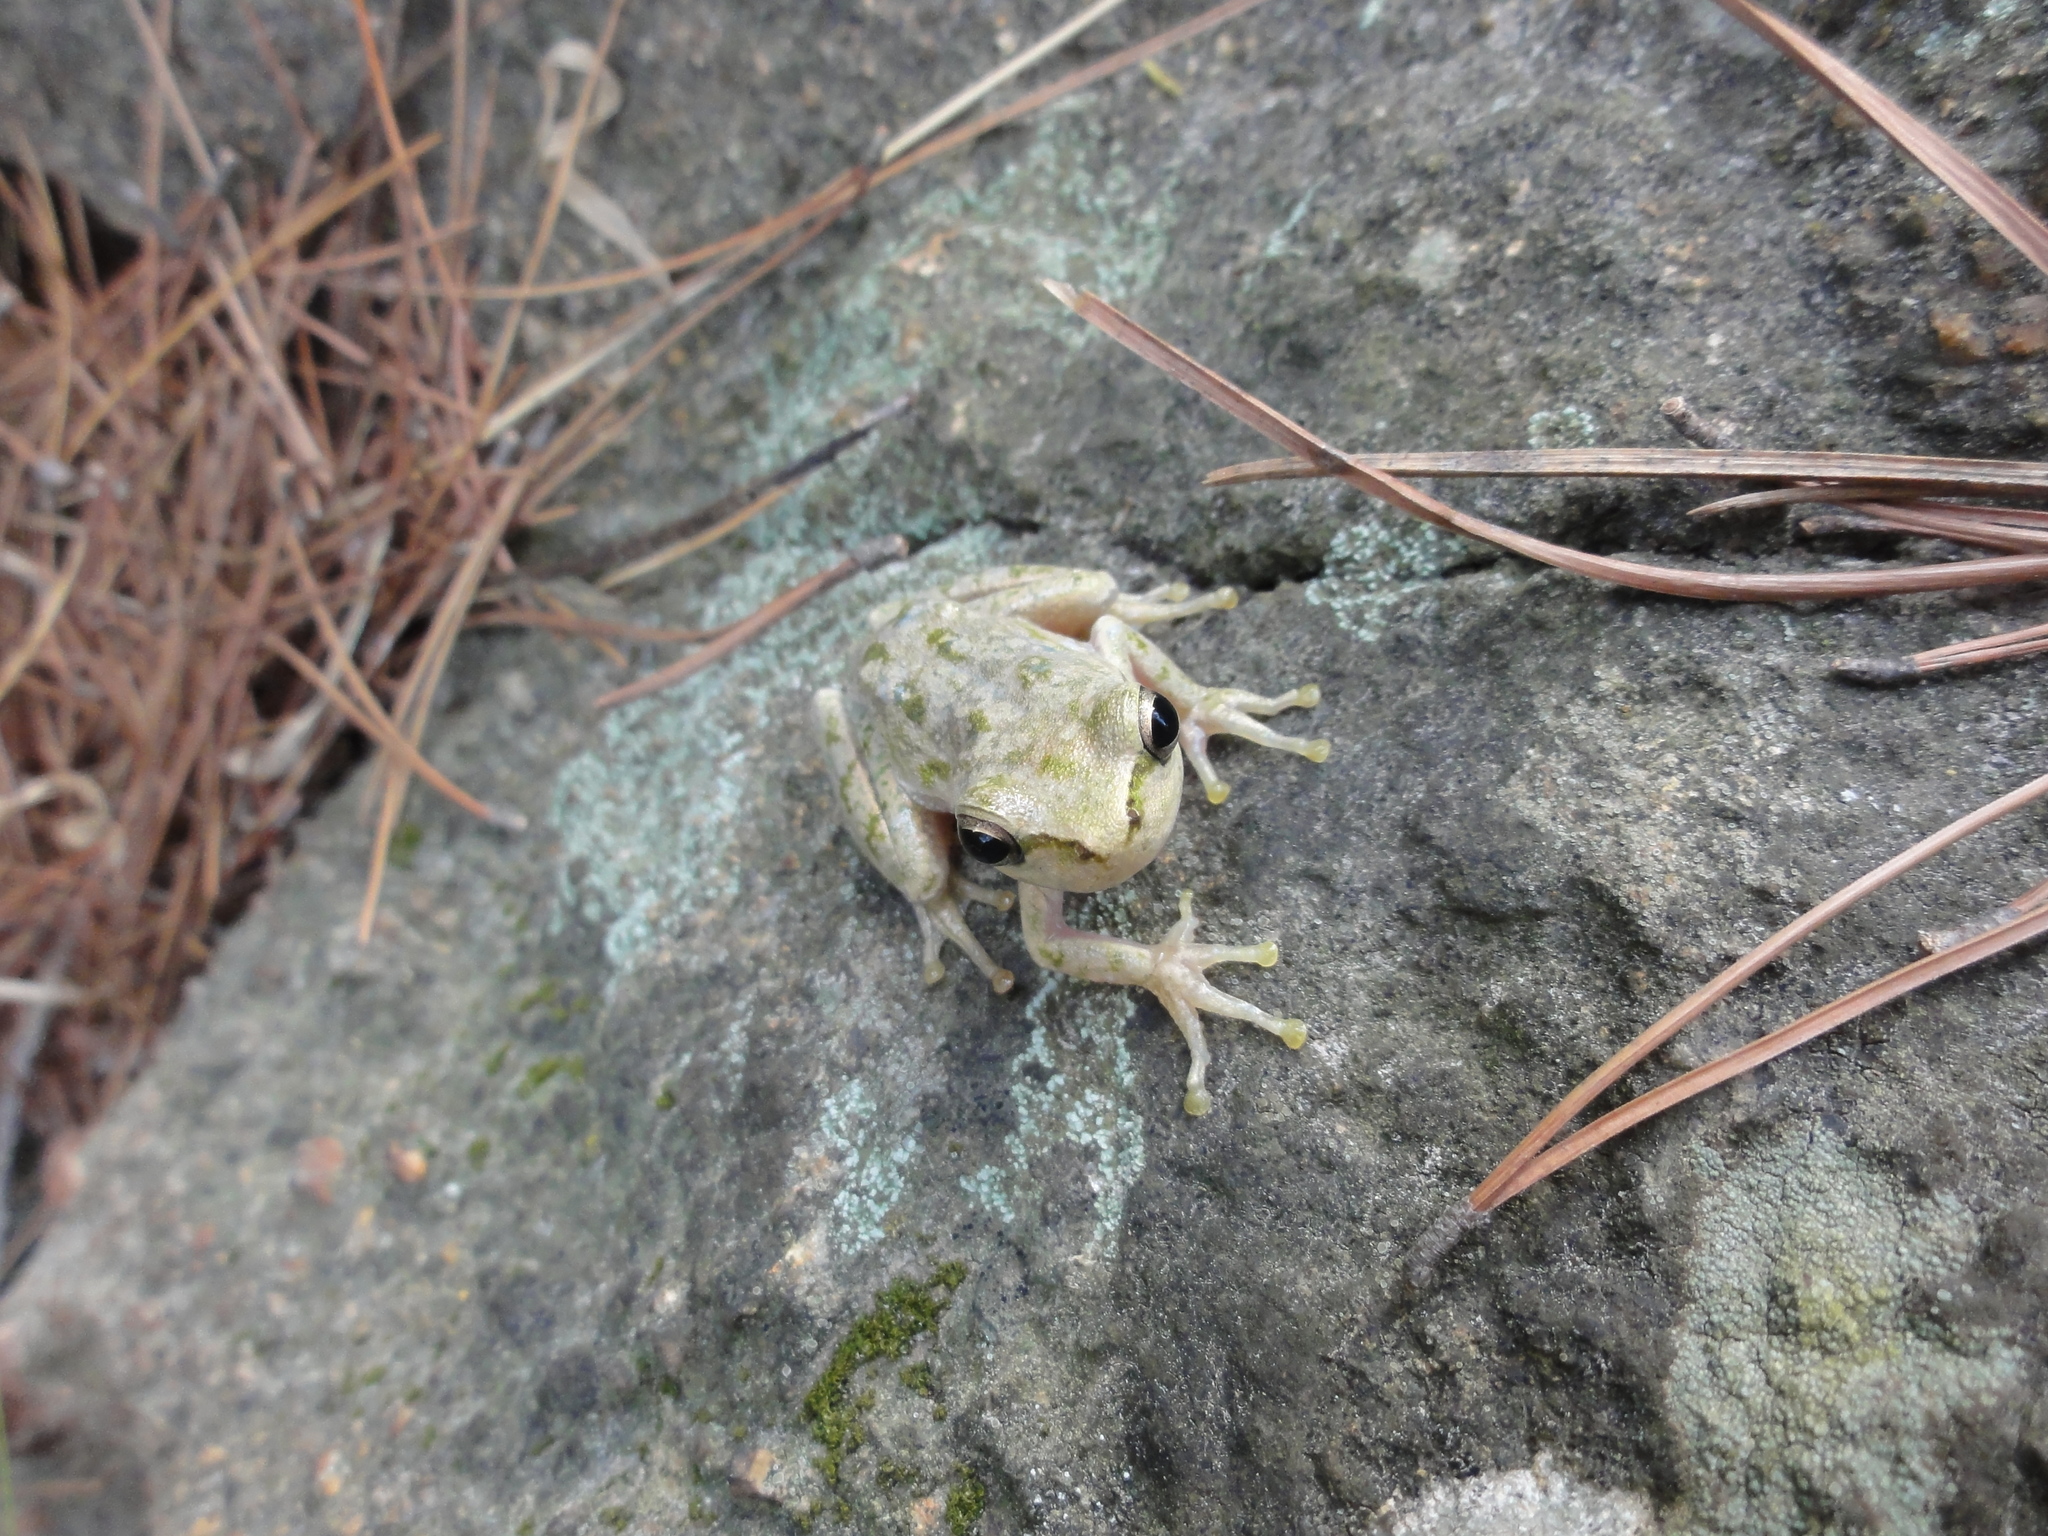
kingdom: Animalia
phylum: Chordata
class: Amphibia
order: Anura
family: Hylidae
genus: Hyla
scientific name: Hyla sarda
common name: Sardinian tree frog
